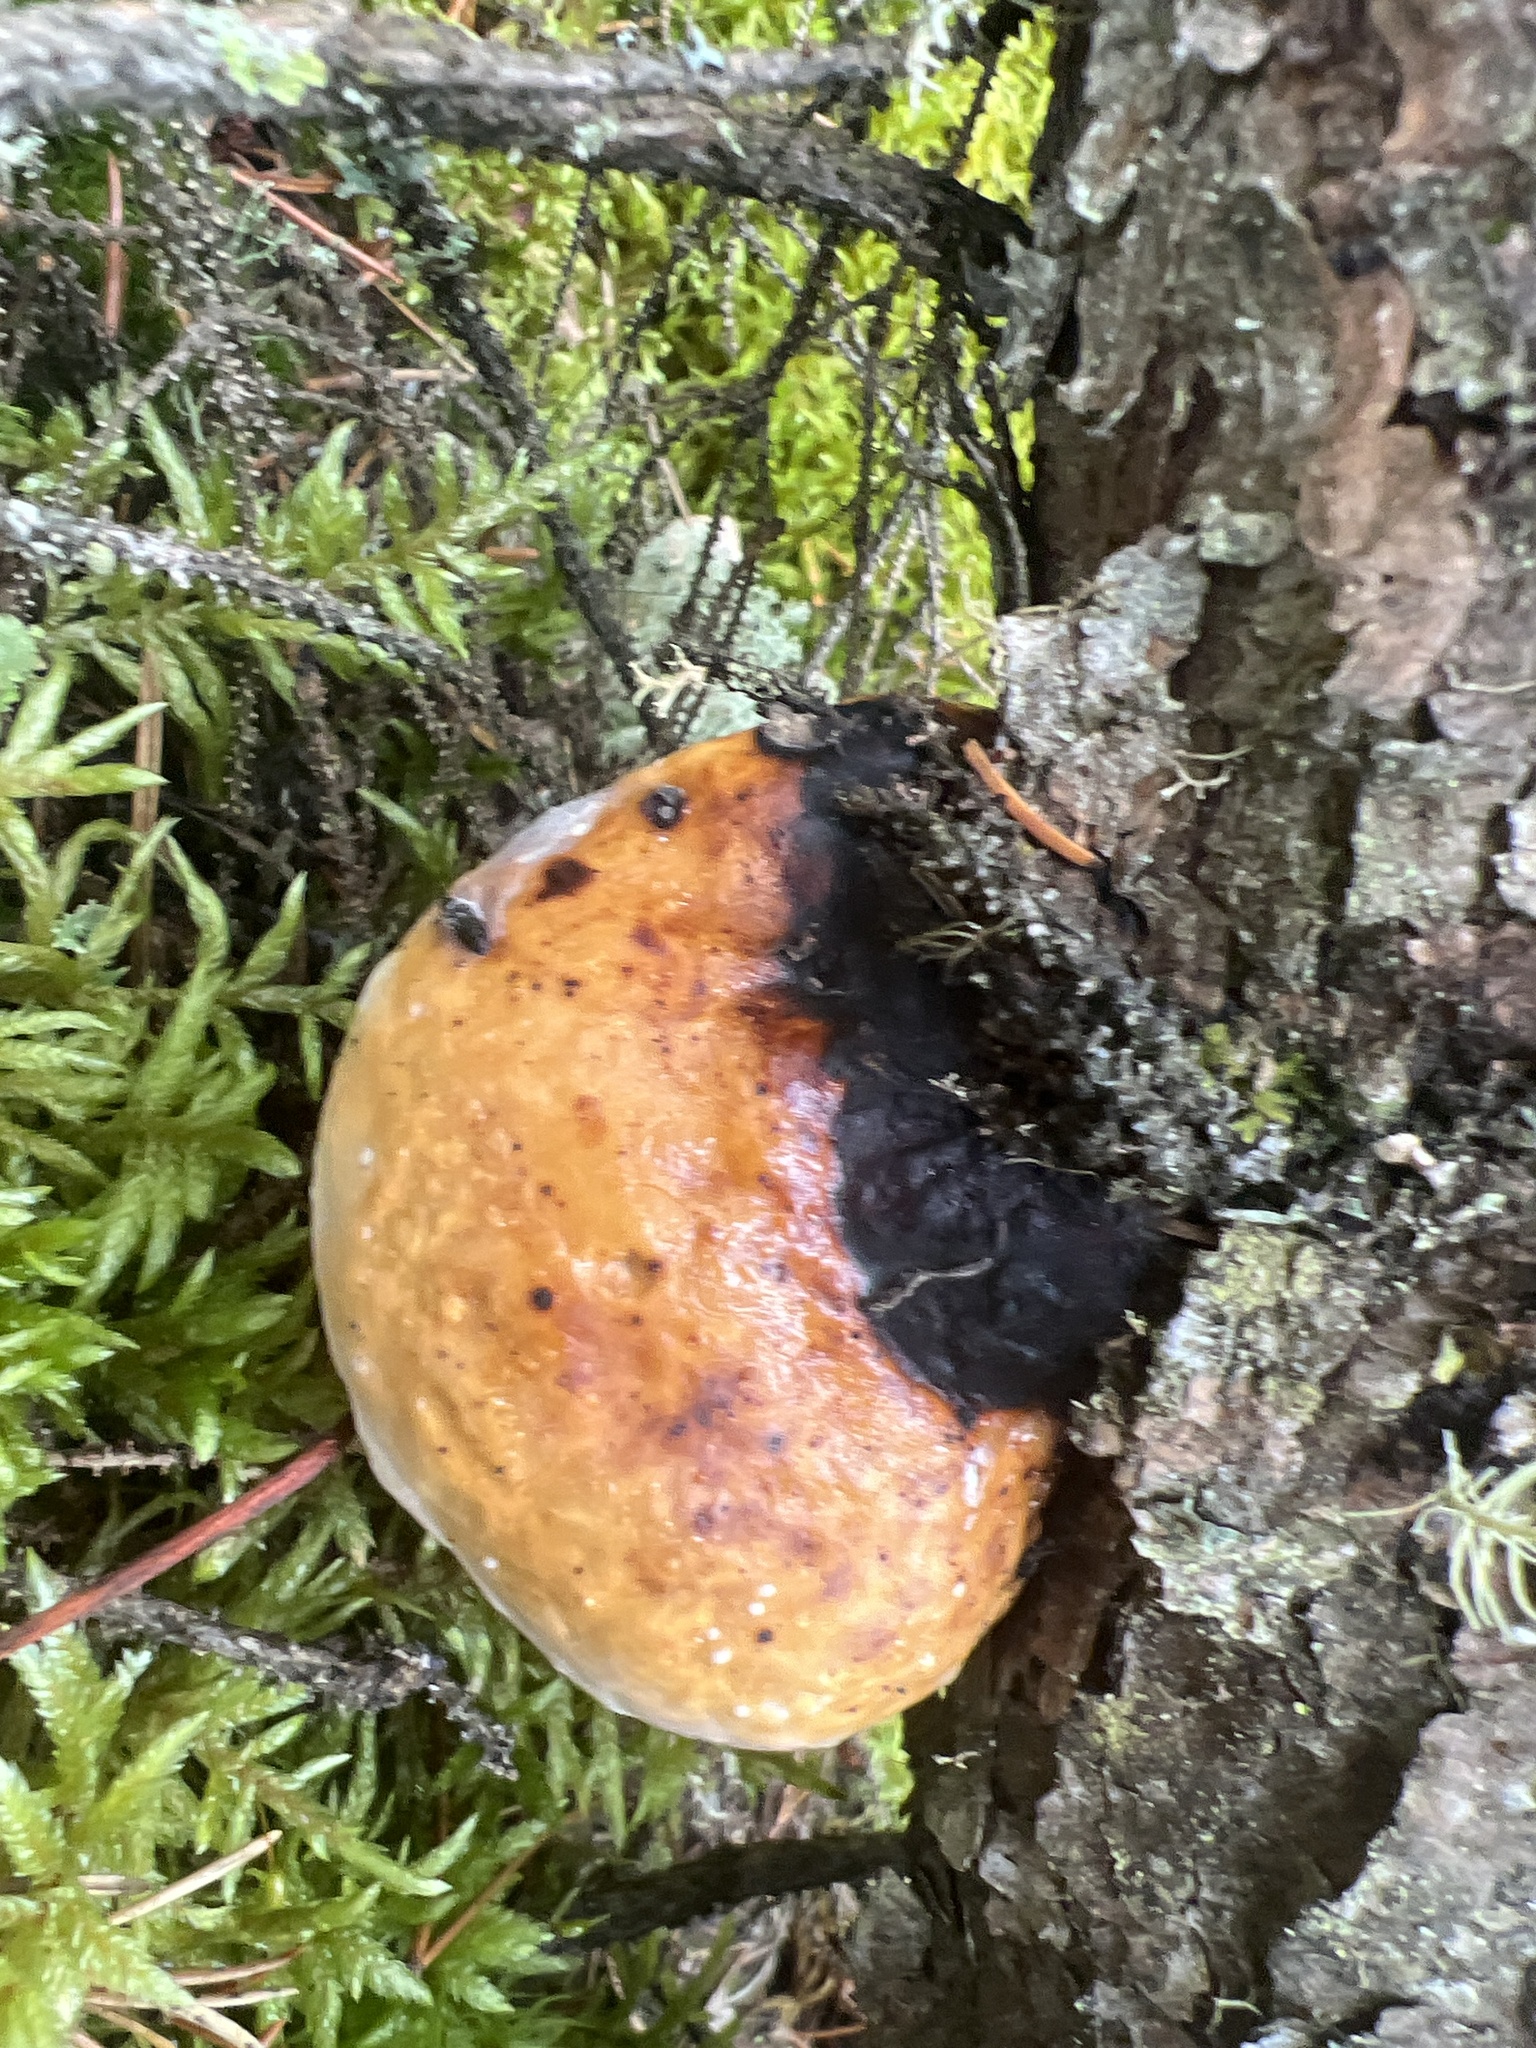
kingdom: Fungi
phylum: Basidiomycota
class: Agaricomycetes
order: Polyporales
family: Fomitopsidaceae
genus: Fomitopsis
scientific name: Fomitopsis mounceae
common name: Northern red belt
